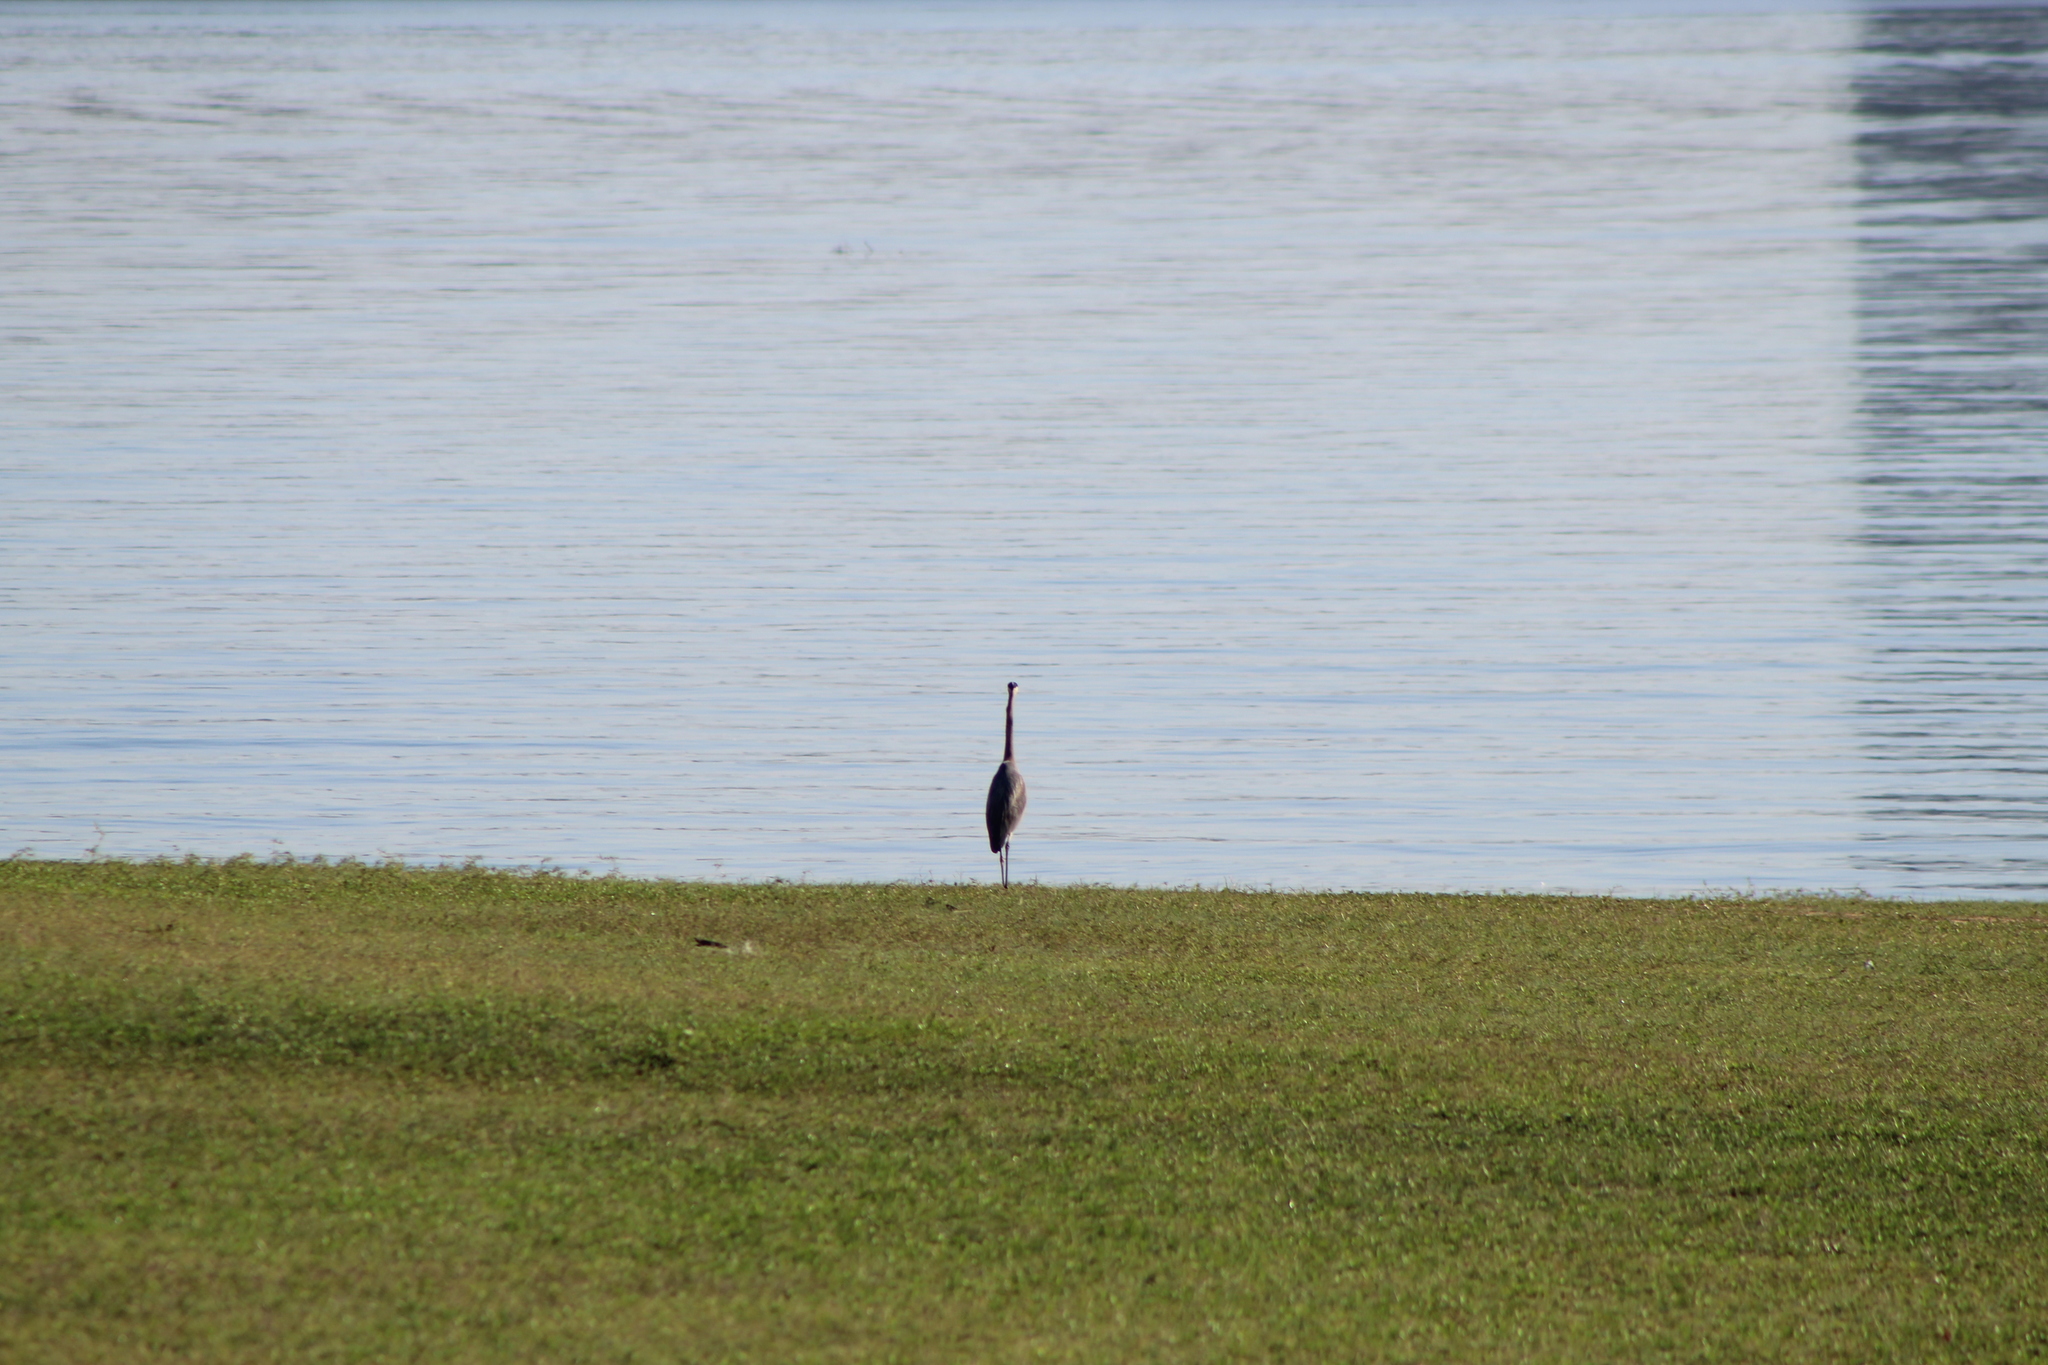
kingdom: Animalia
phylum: Chordata
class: Aves
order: Pelecaniformes
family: Ardeidae
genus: Ardea
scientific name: Ardea herodias
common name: Great blue heron
